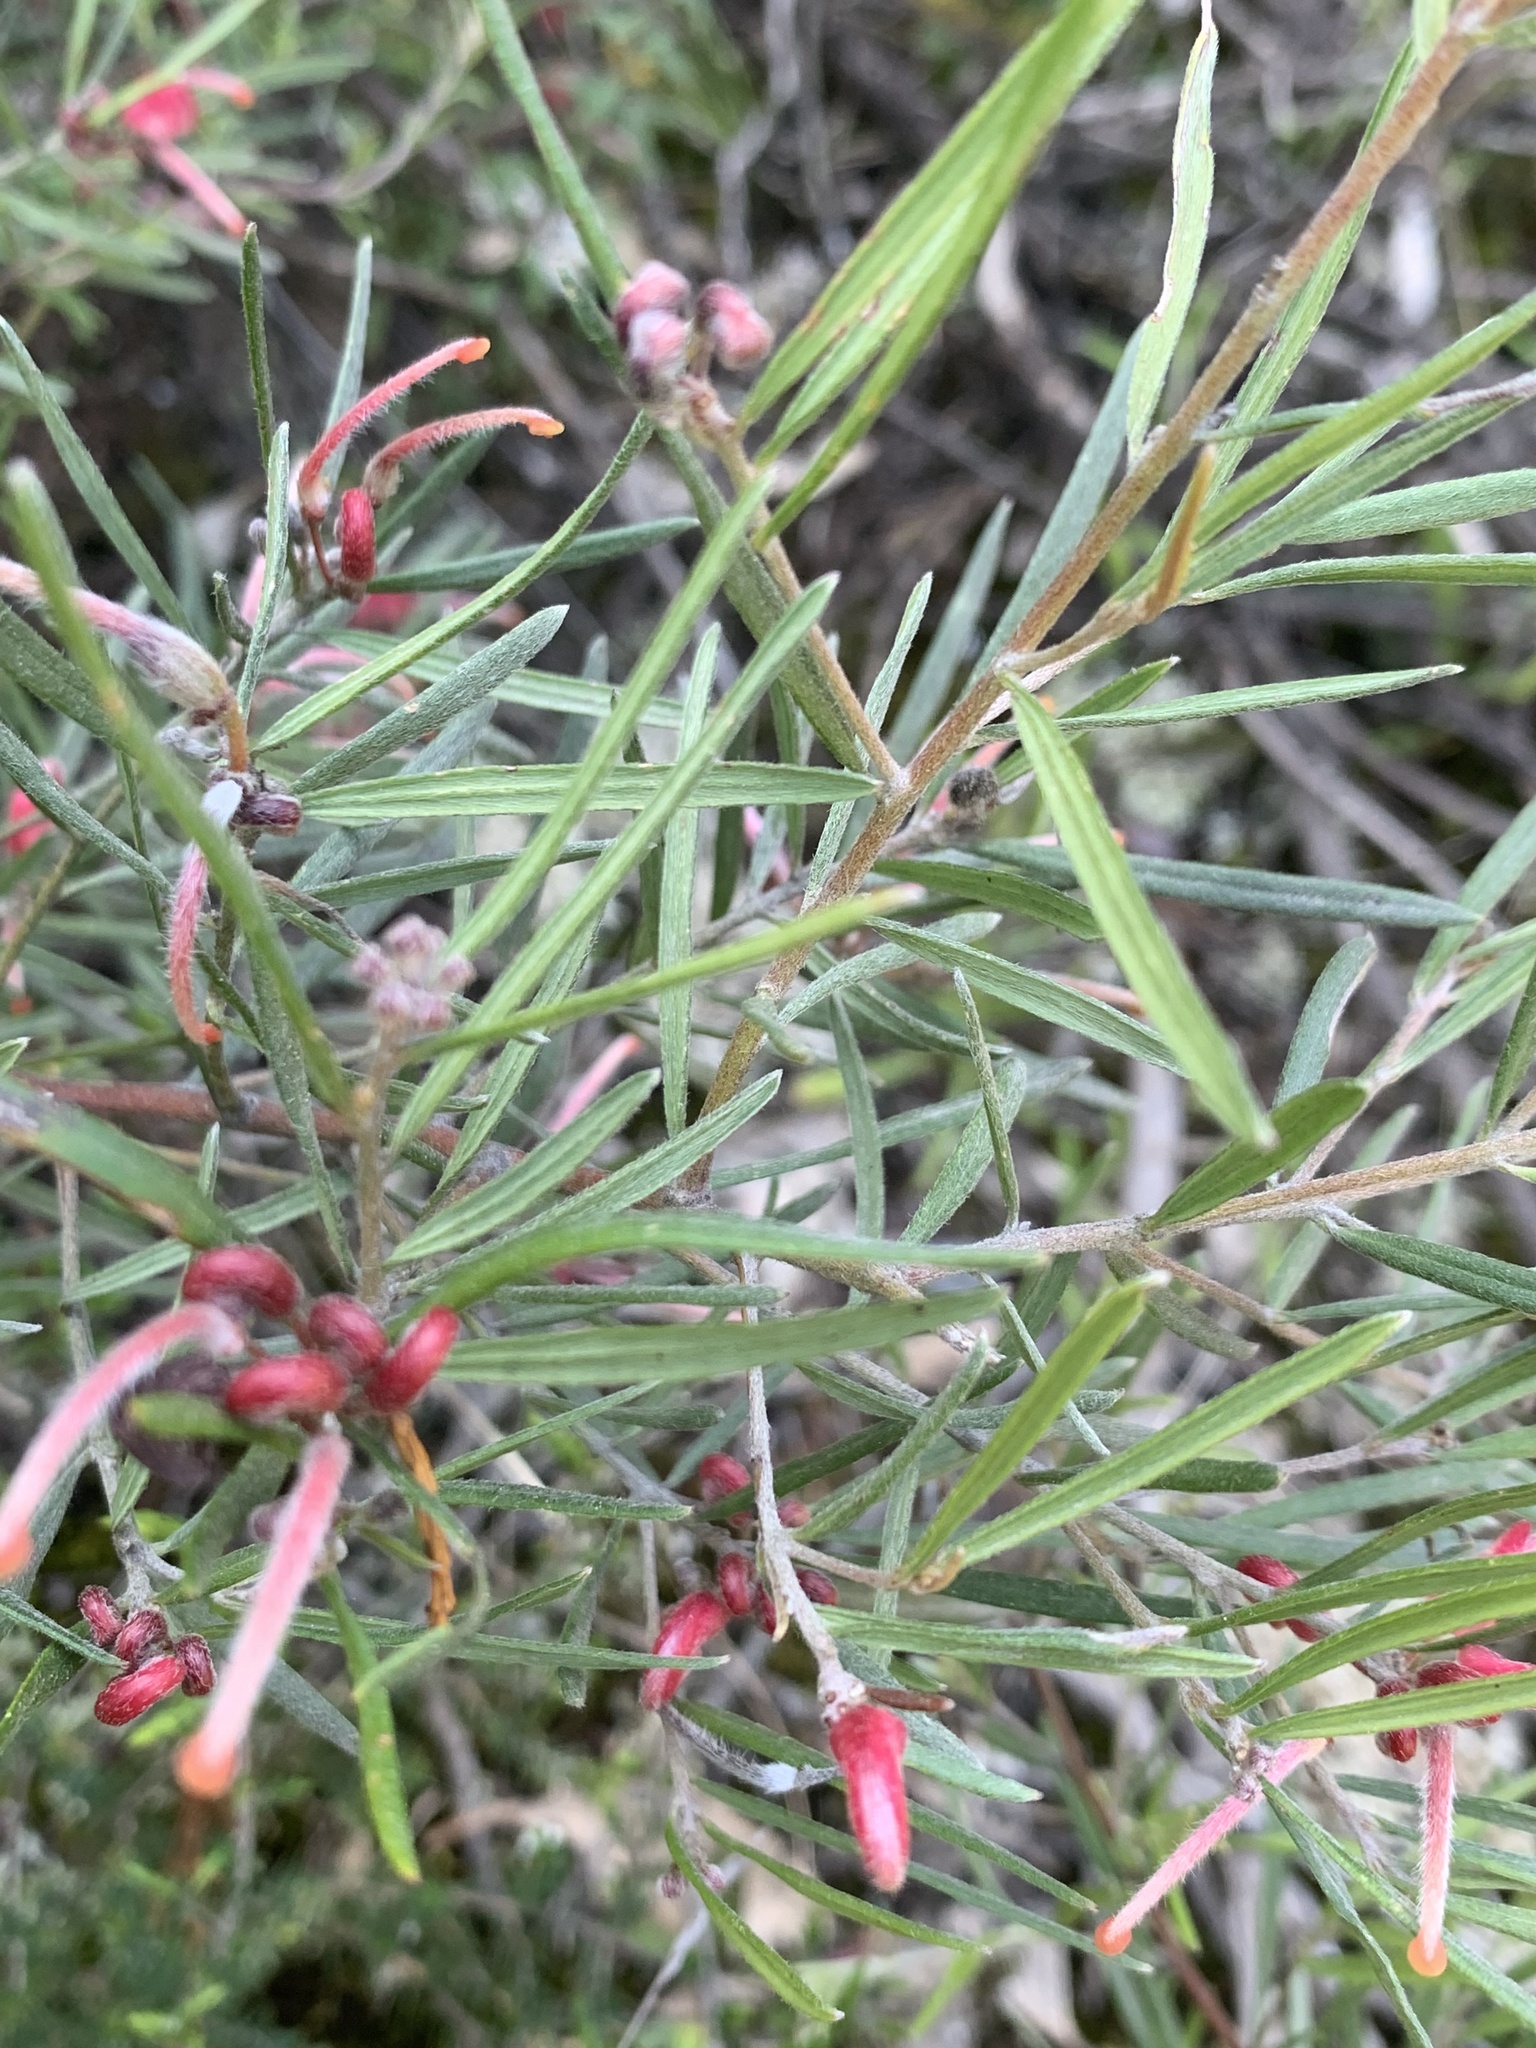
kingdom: Plantae
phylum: Tracheophyta
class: Magnoliopsida
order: Proteales
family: Proteaceae
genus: Grevillea
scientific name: Grevillea obtusiflora
